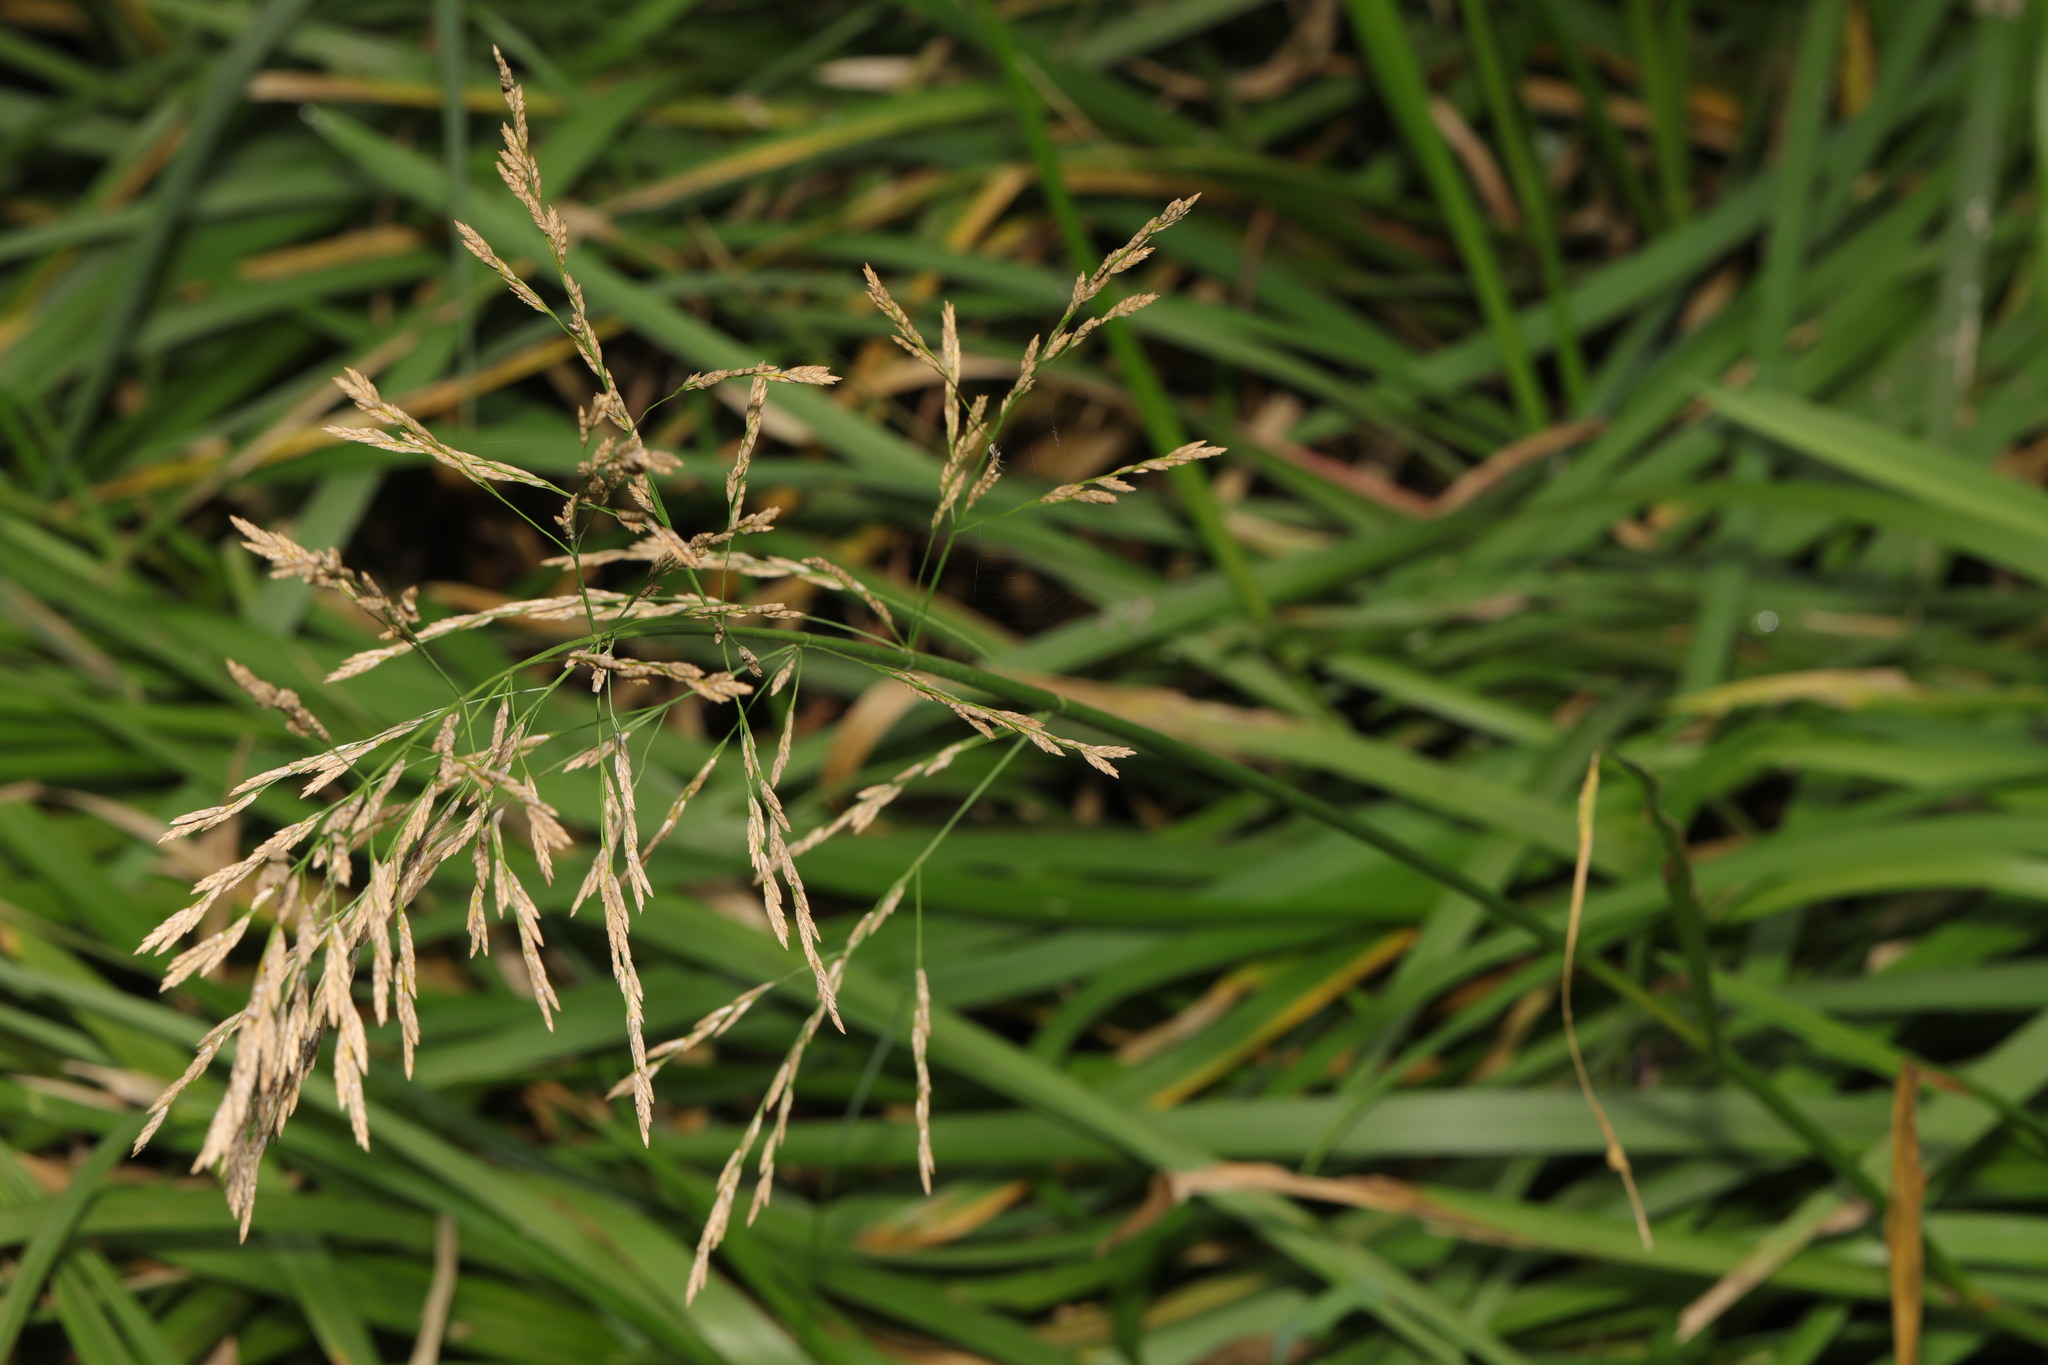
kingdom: Plantae
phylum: Tracheophyta
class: Liliopsida
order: Poales
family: Poaceae
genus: Glyceria
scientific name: Glyceria maxima
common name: Reed mannagrass
